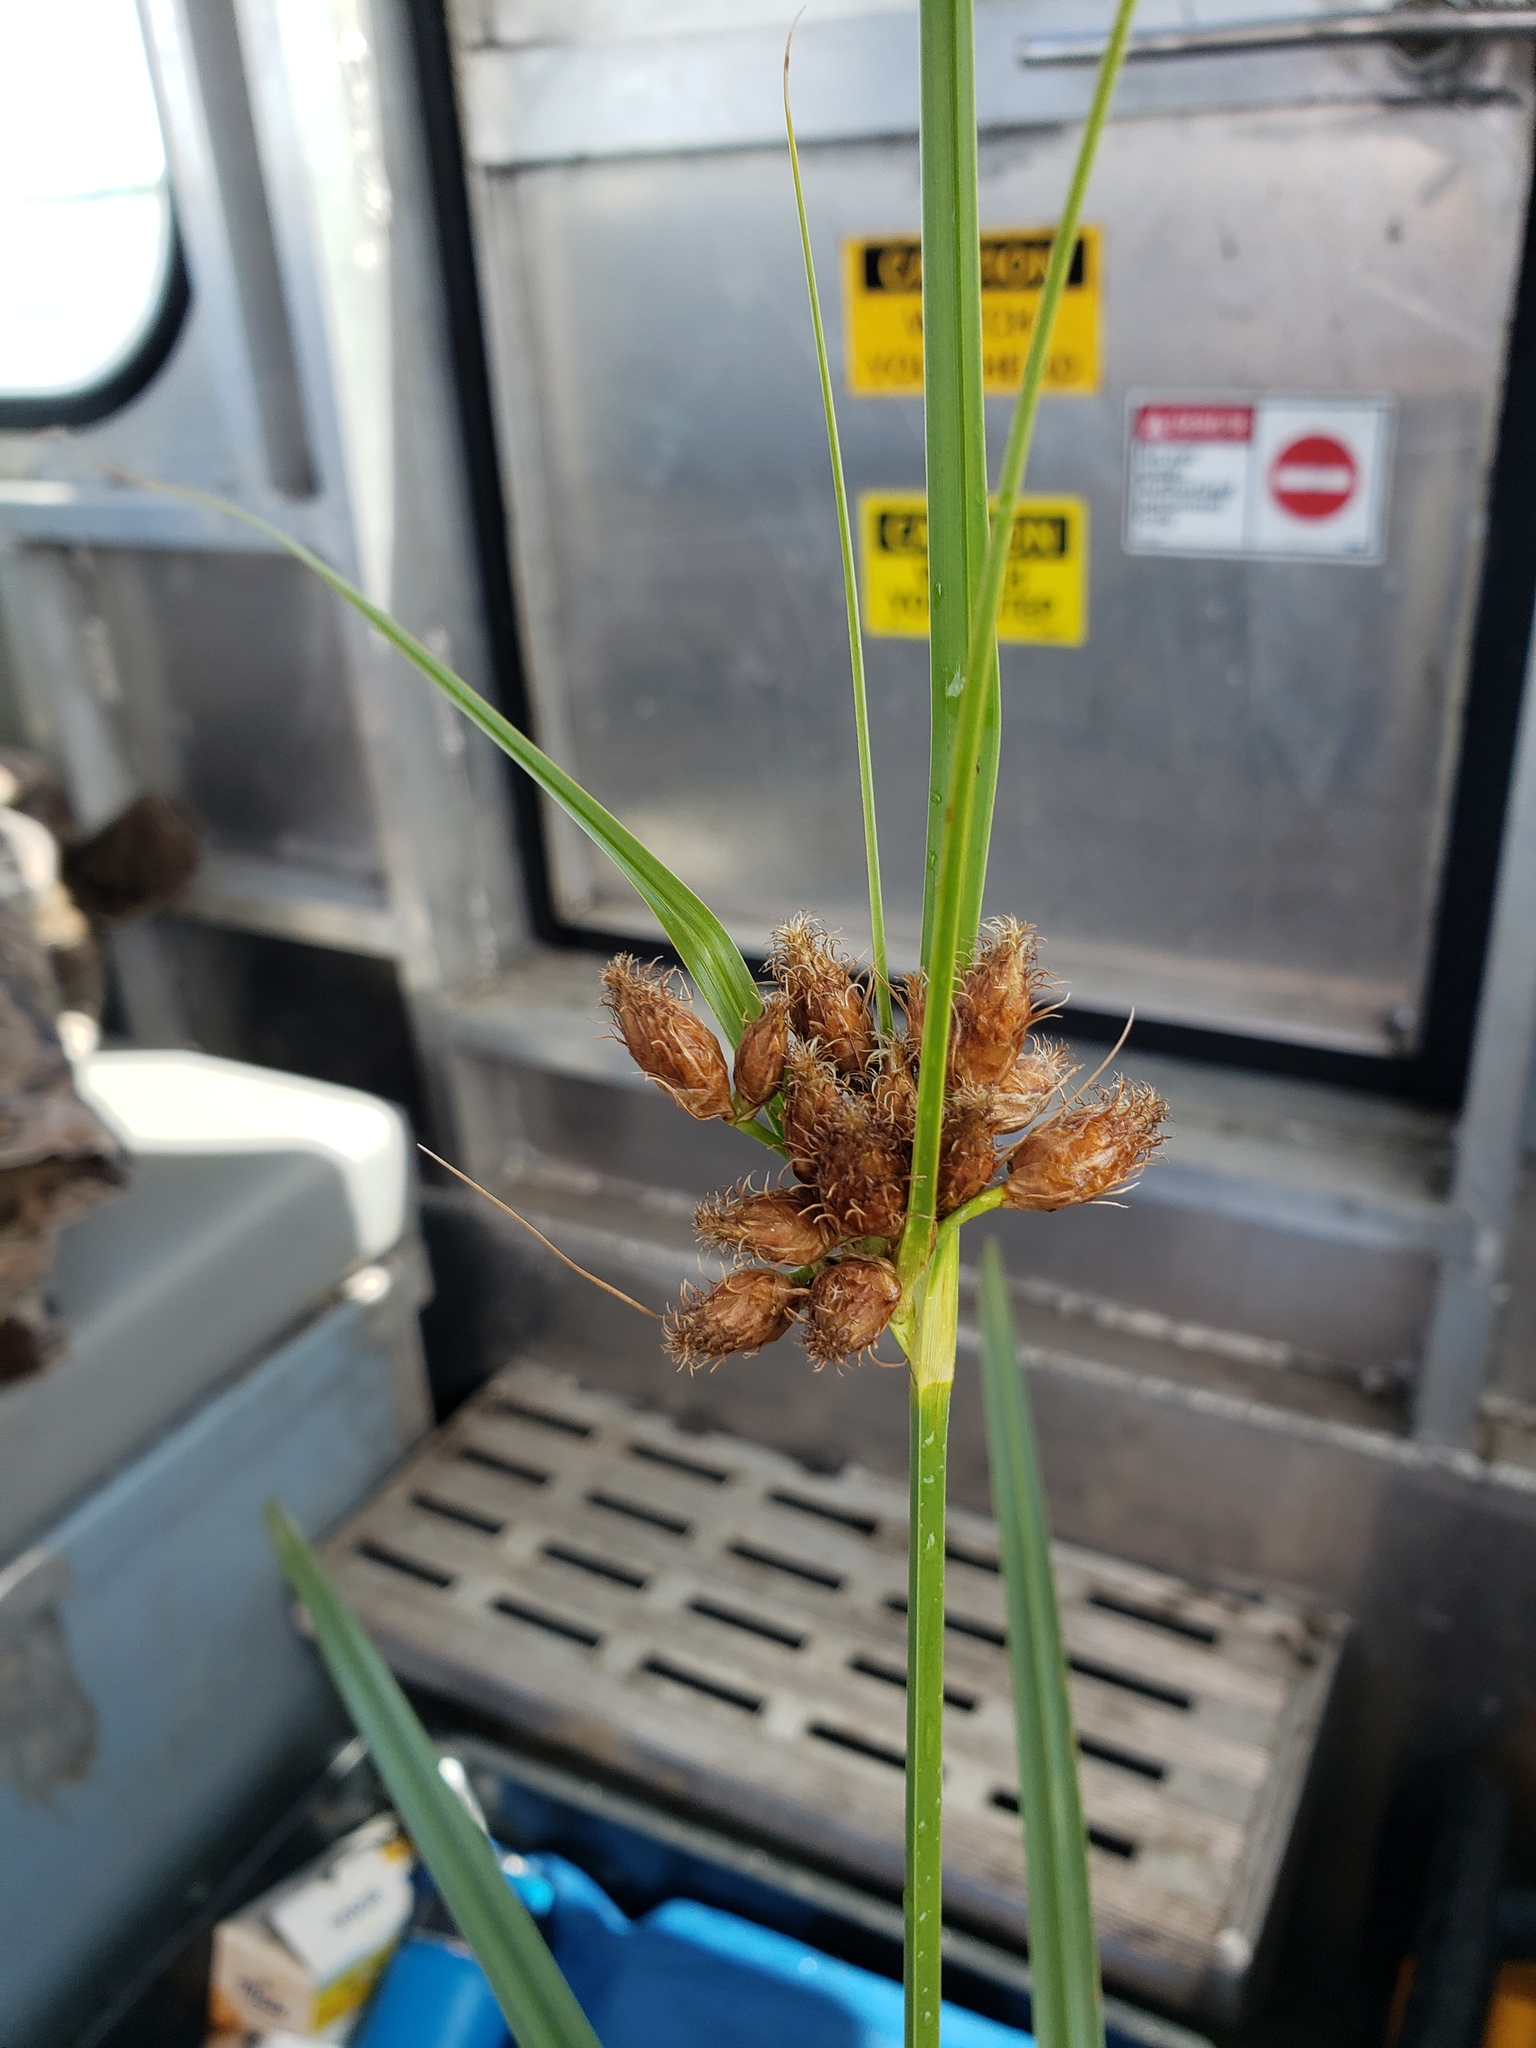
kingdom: Plantae
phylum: Tracheophyta
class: Liliopsida
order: Poales
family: Cyperaceae
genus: Bolboschoenus
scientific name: Bolboschoenus robustus
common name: Seacoast bulrush
